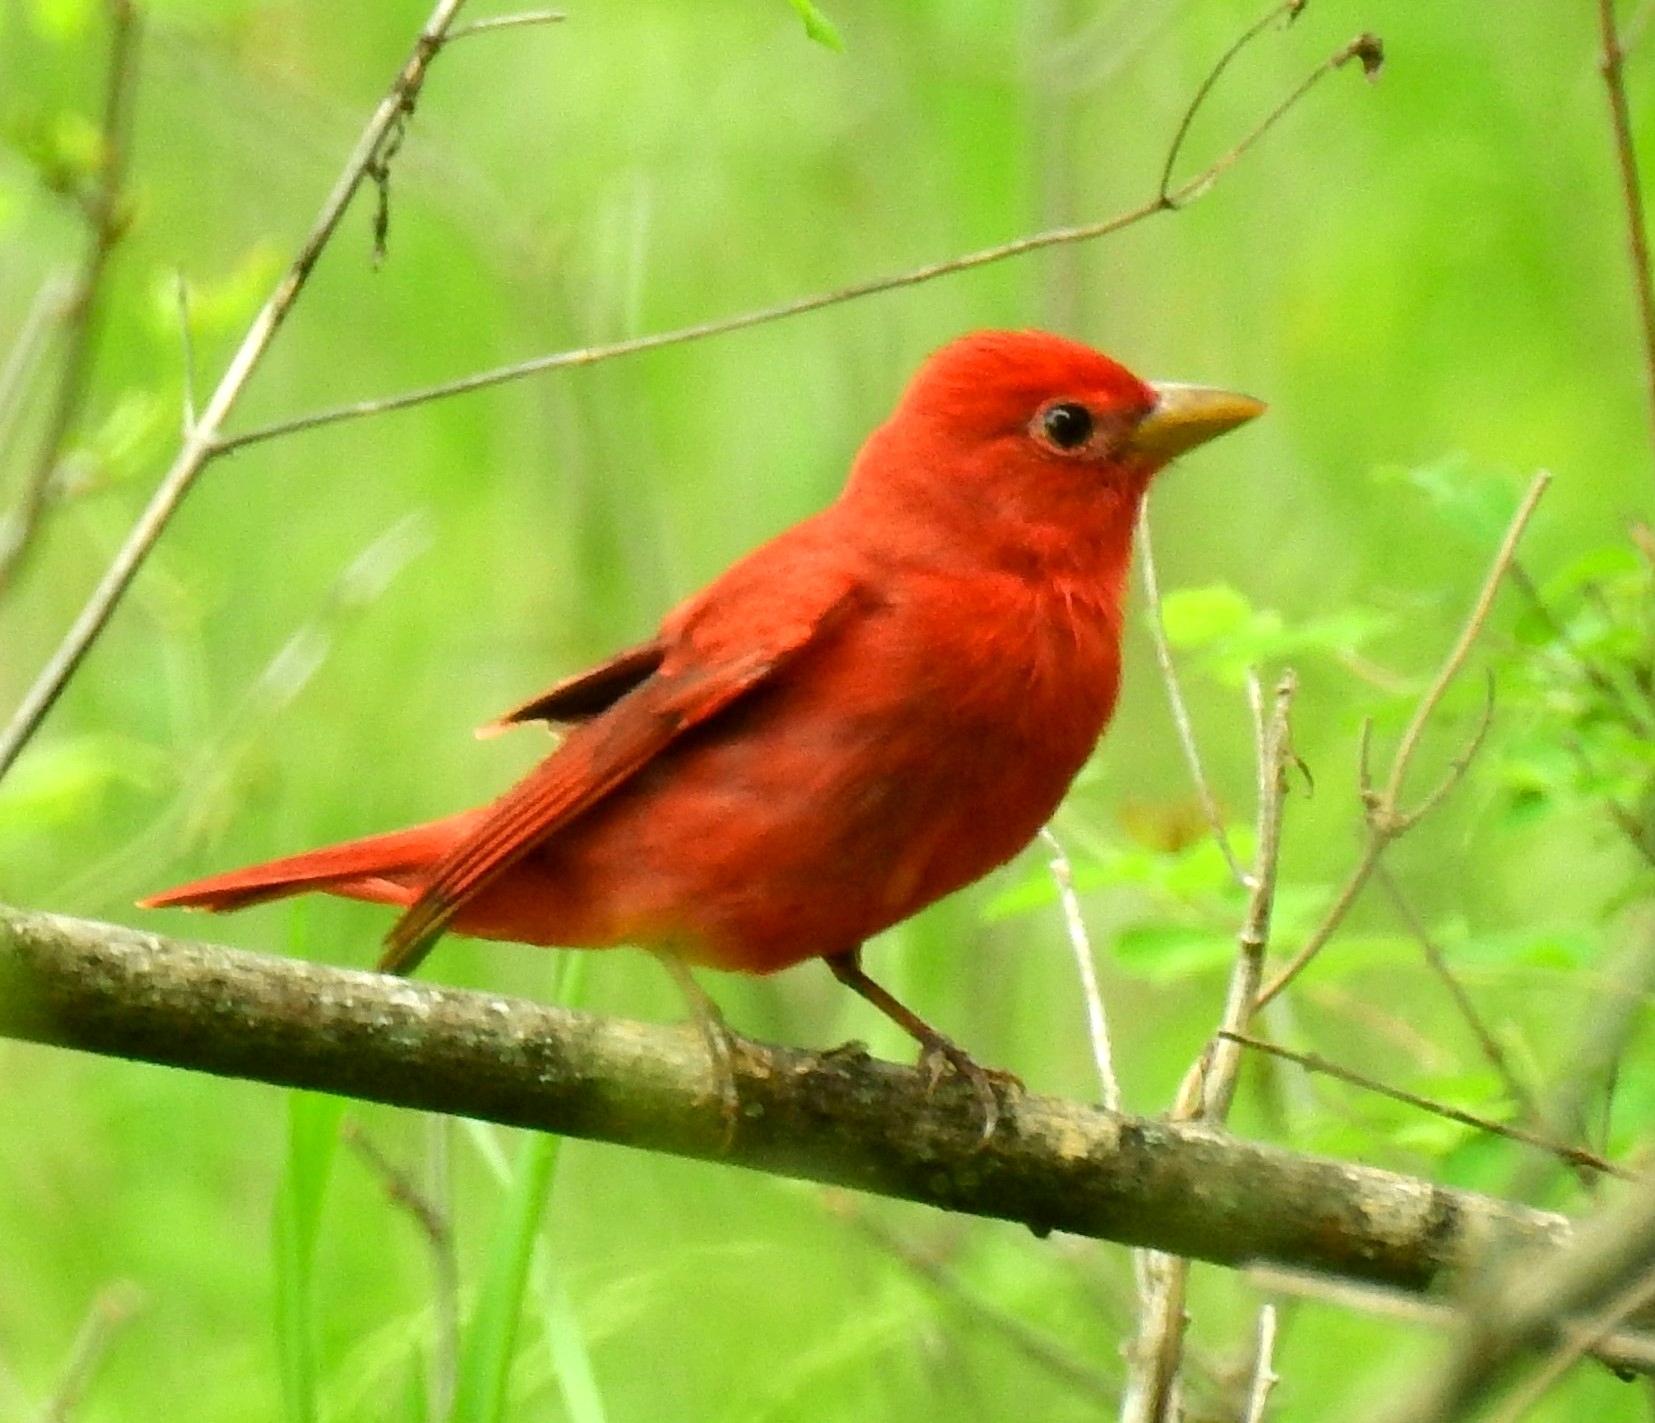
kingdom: Animalia
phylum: Chordata
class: Aves
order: Passeriformes
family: Cardinalidae
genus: Piranga
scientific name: Piranga rubra
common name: Summer tanager
